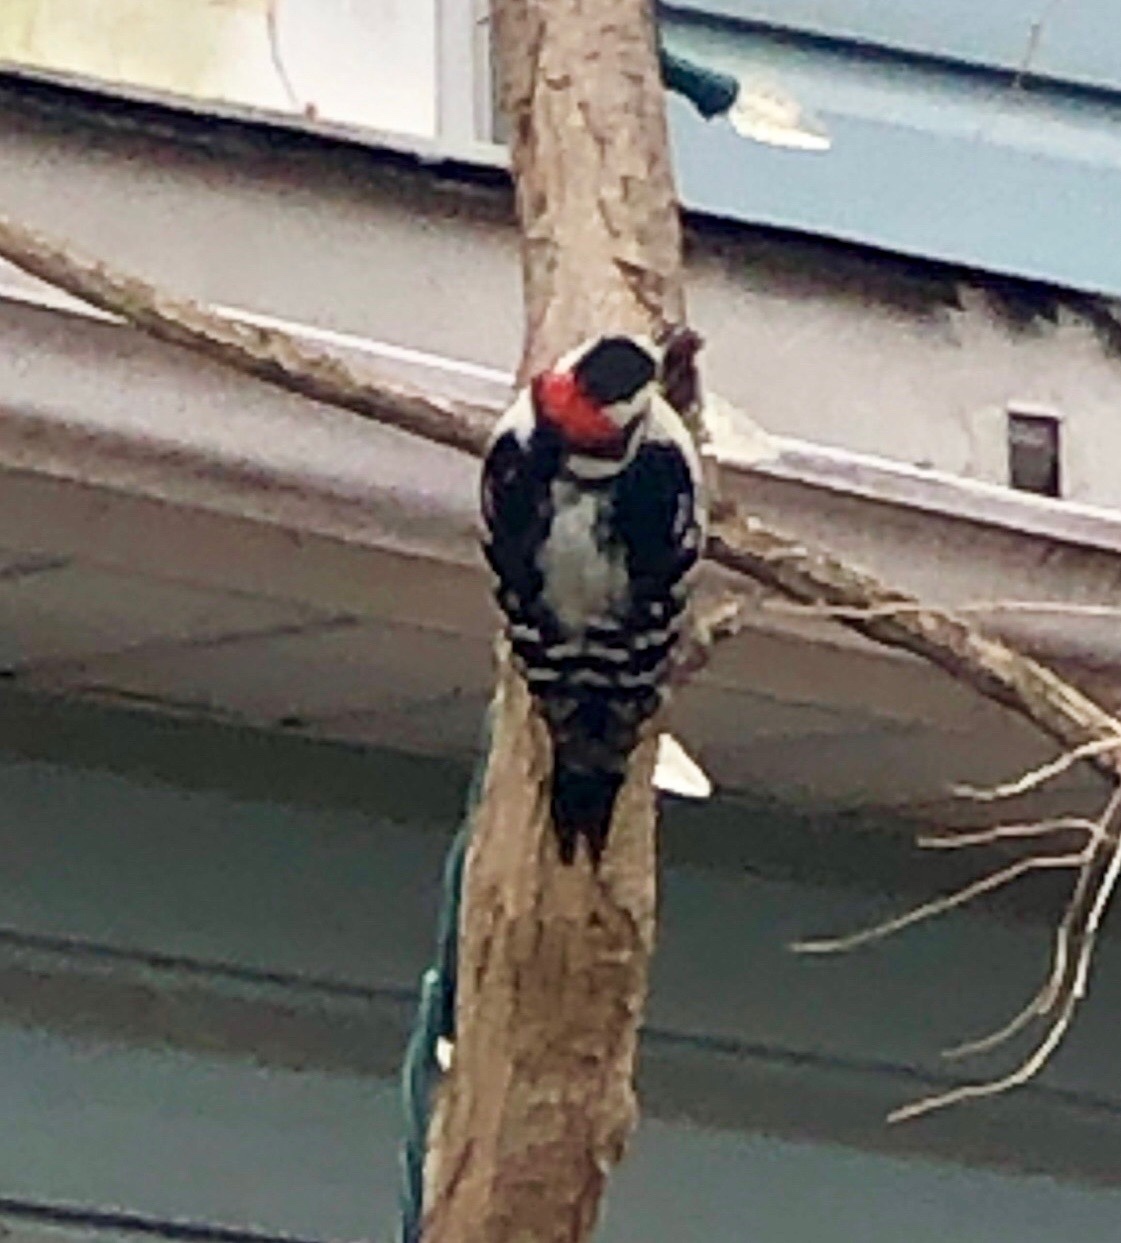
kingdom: Animalia
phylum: Chordata
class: Aves
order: Piciformes
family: Picidae
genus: Dryobates
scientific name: Dryobates pubescens
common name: Downy woodpecker
